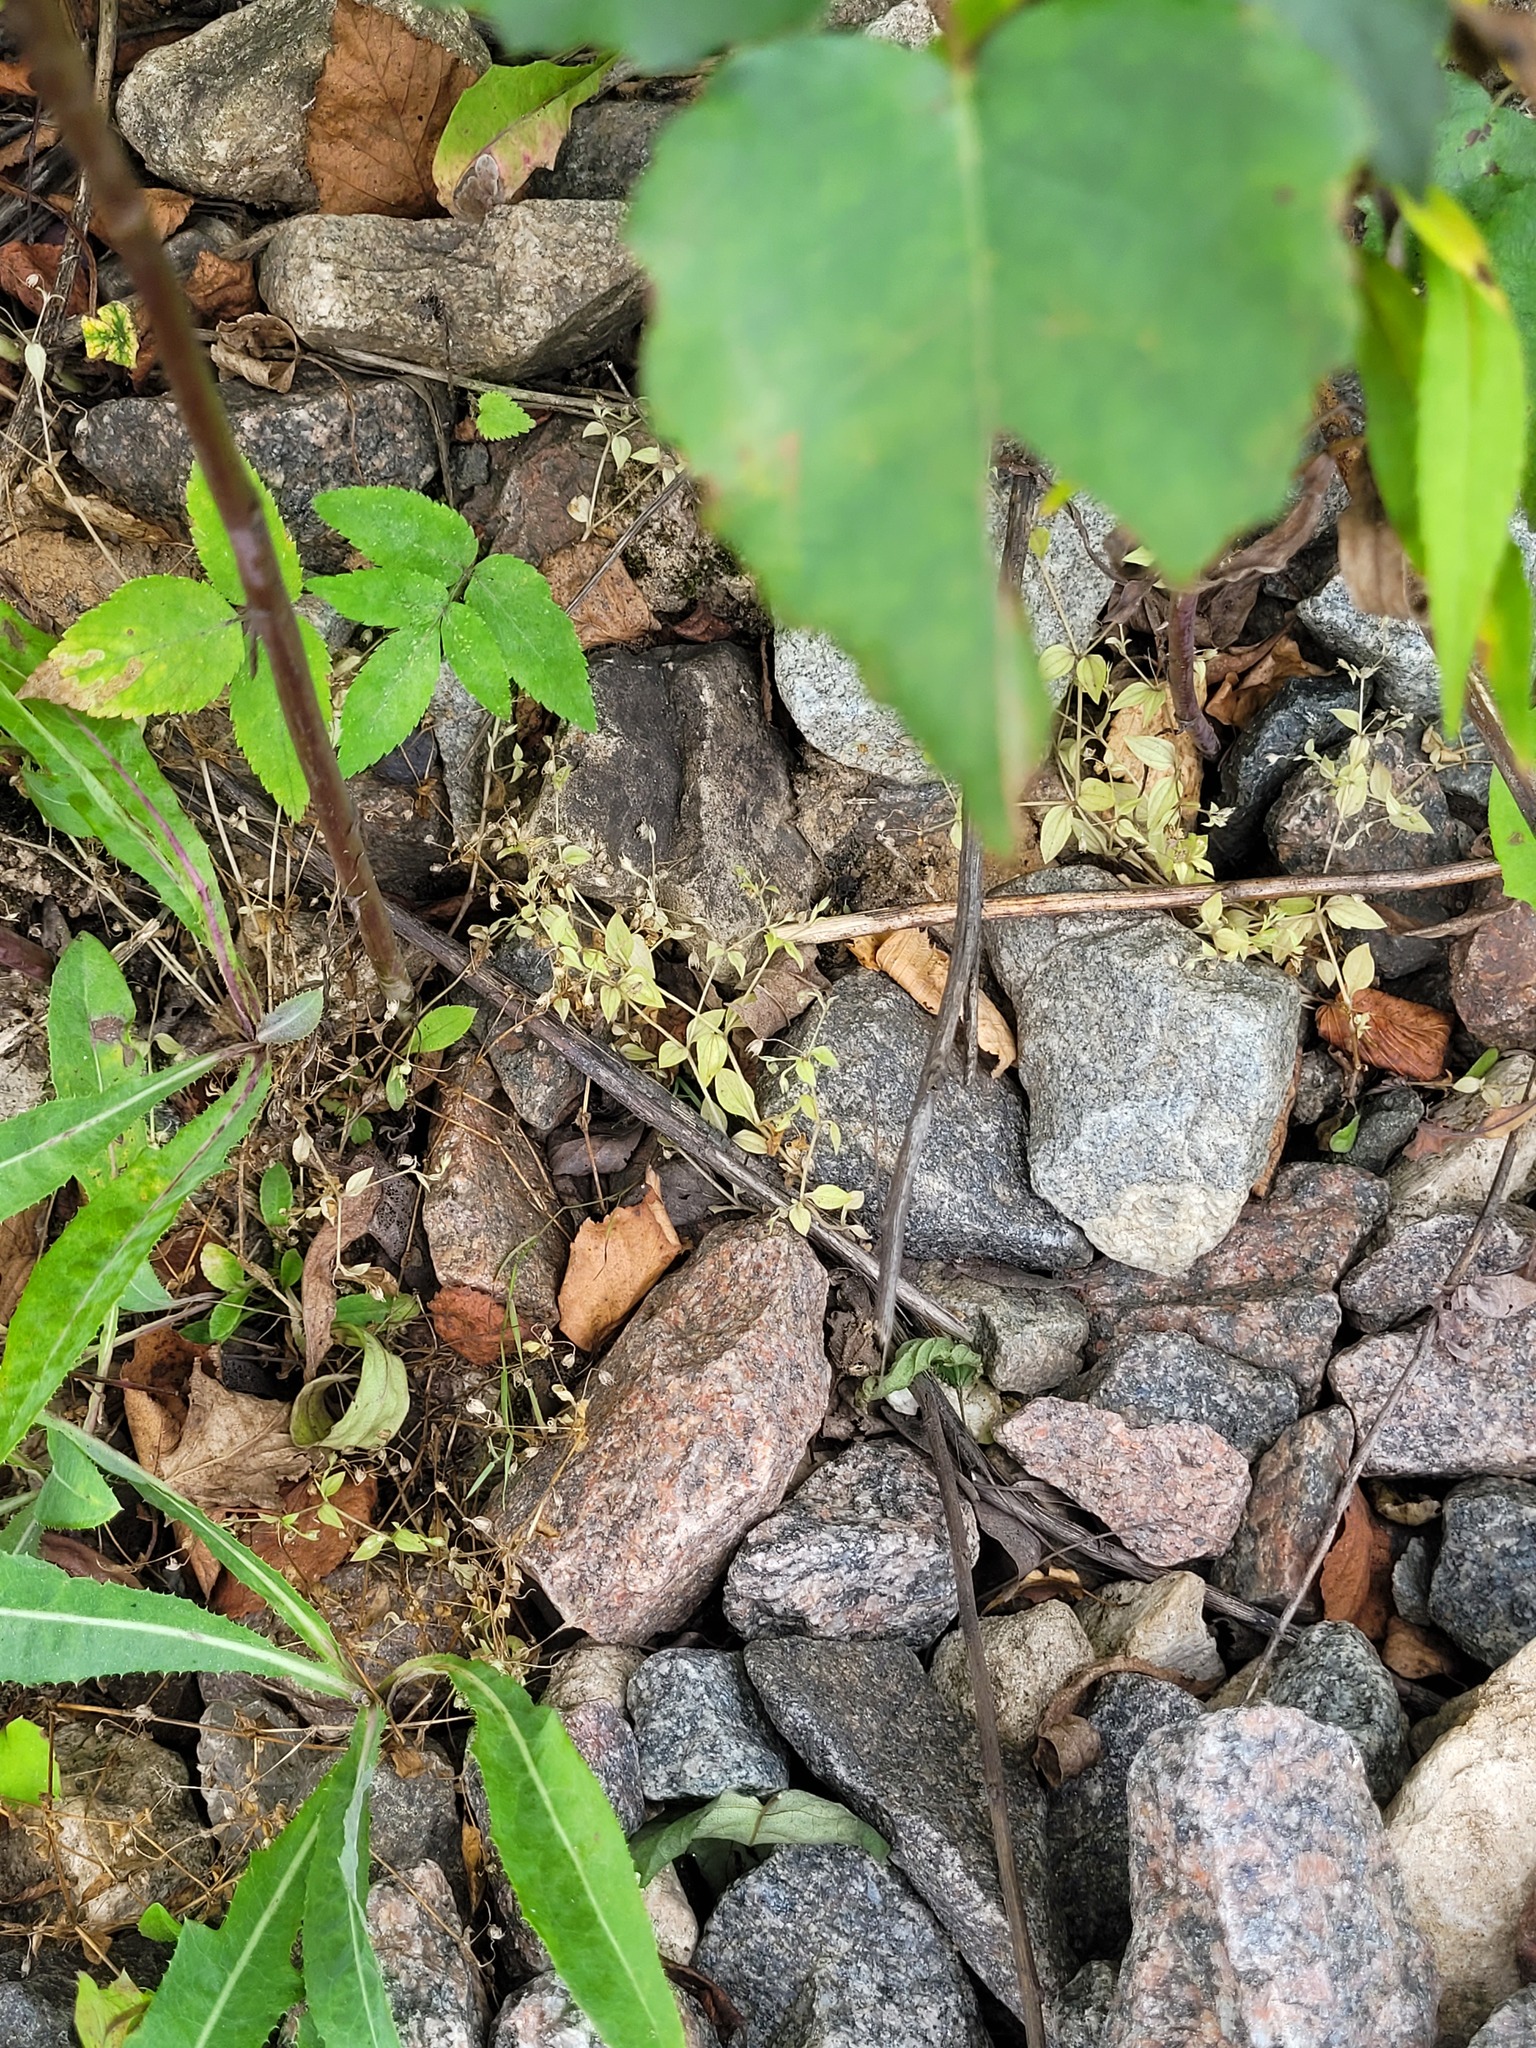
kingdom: Plantae
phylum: Tracheophyta
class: Magnoliopsida
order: Caryophyllales
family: Caryophyllaceae
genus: Moehringia
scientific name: Moehringia trinervia
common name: Three-nerved sandwort
